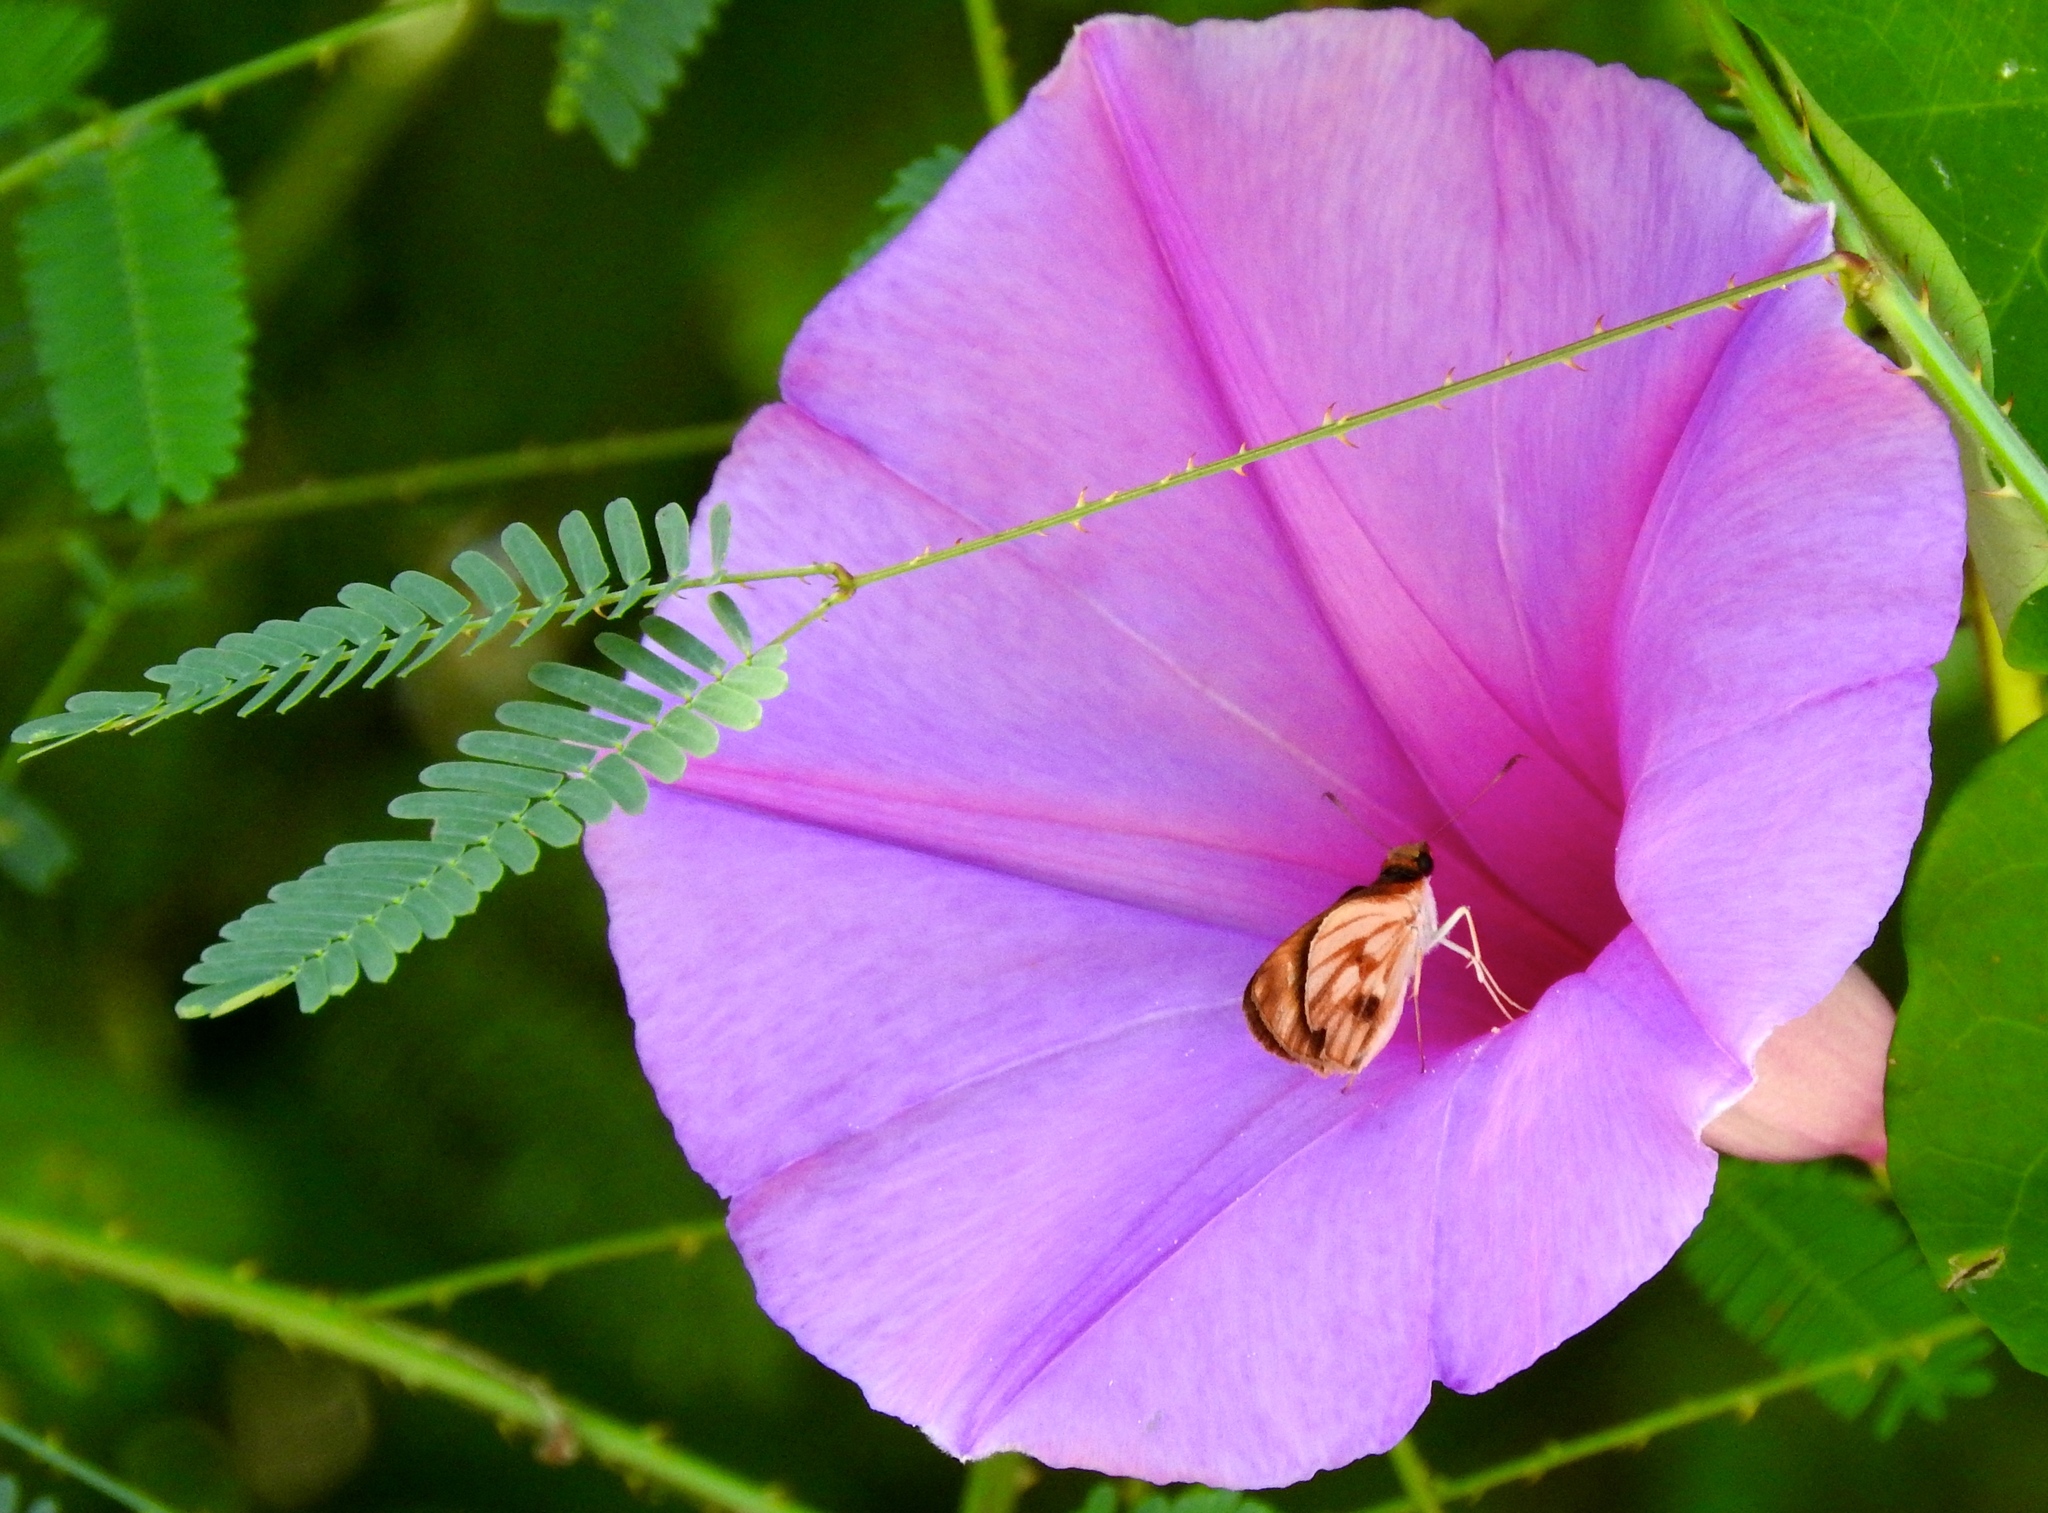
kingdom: Plantae
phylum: Tracheophyta
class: Magnoliopsida
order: Solanales
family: Convolvulaceae
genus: Ipomoea
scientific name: Ipomoea pedicellaris
